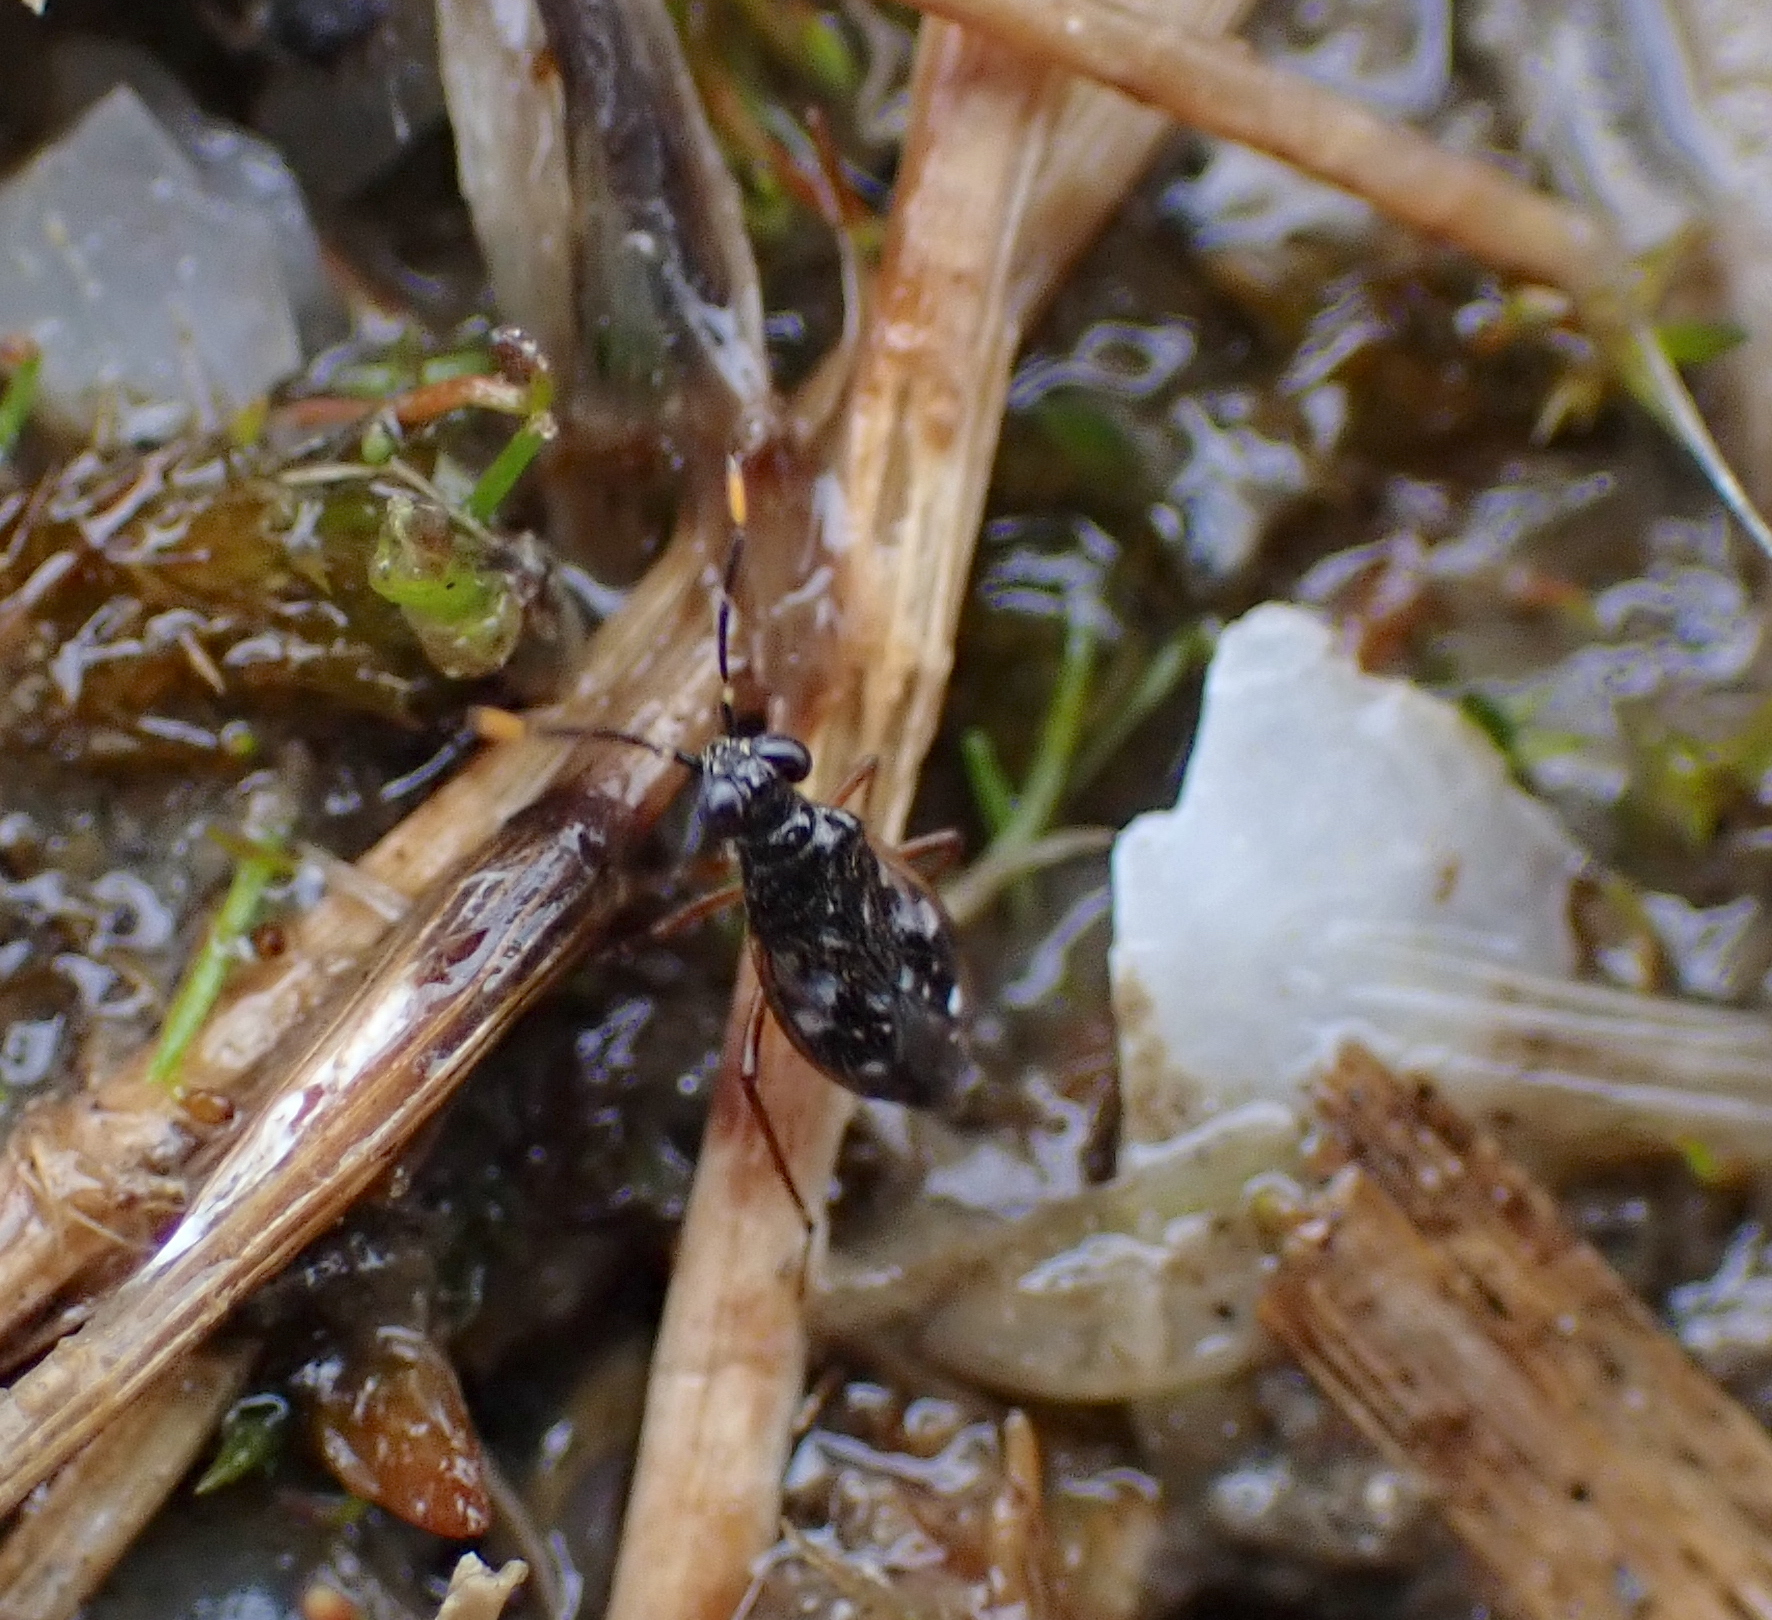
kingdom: Animalia
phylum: Arthropoda
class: Insecta
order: Hemiptera
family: Saldidae
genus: Chartoscirta
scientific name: Chartoscirta elegantula
